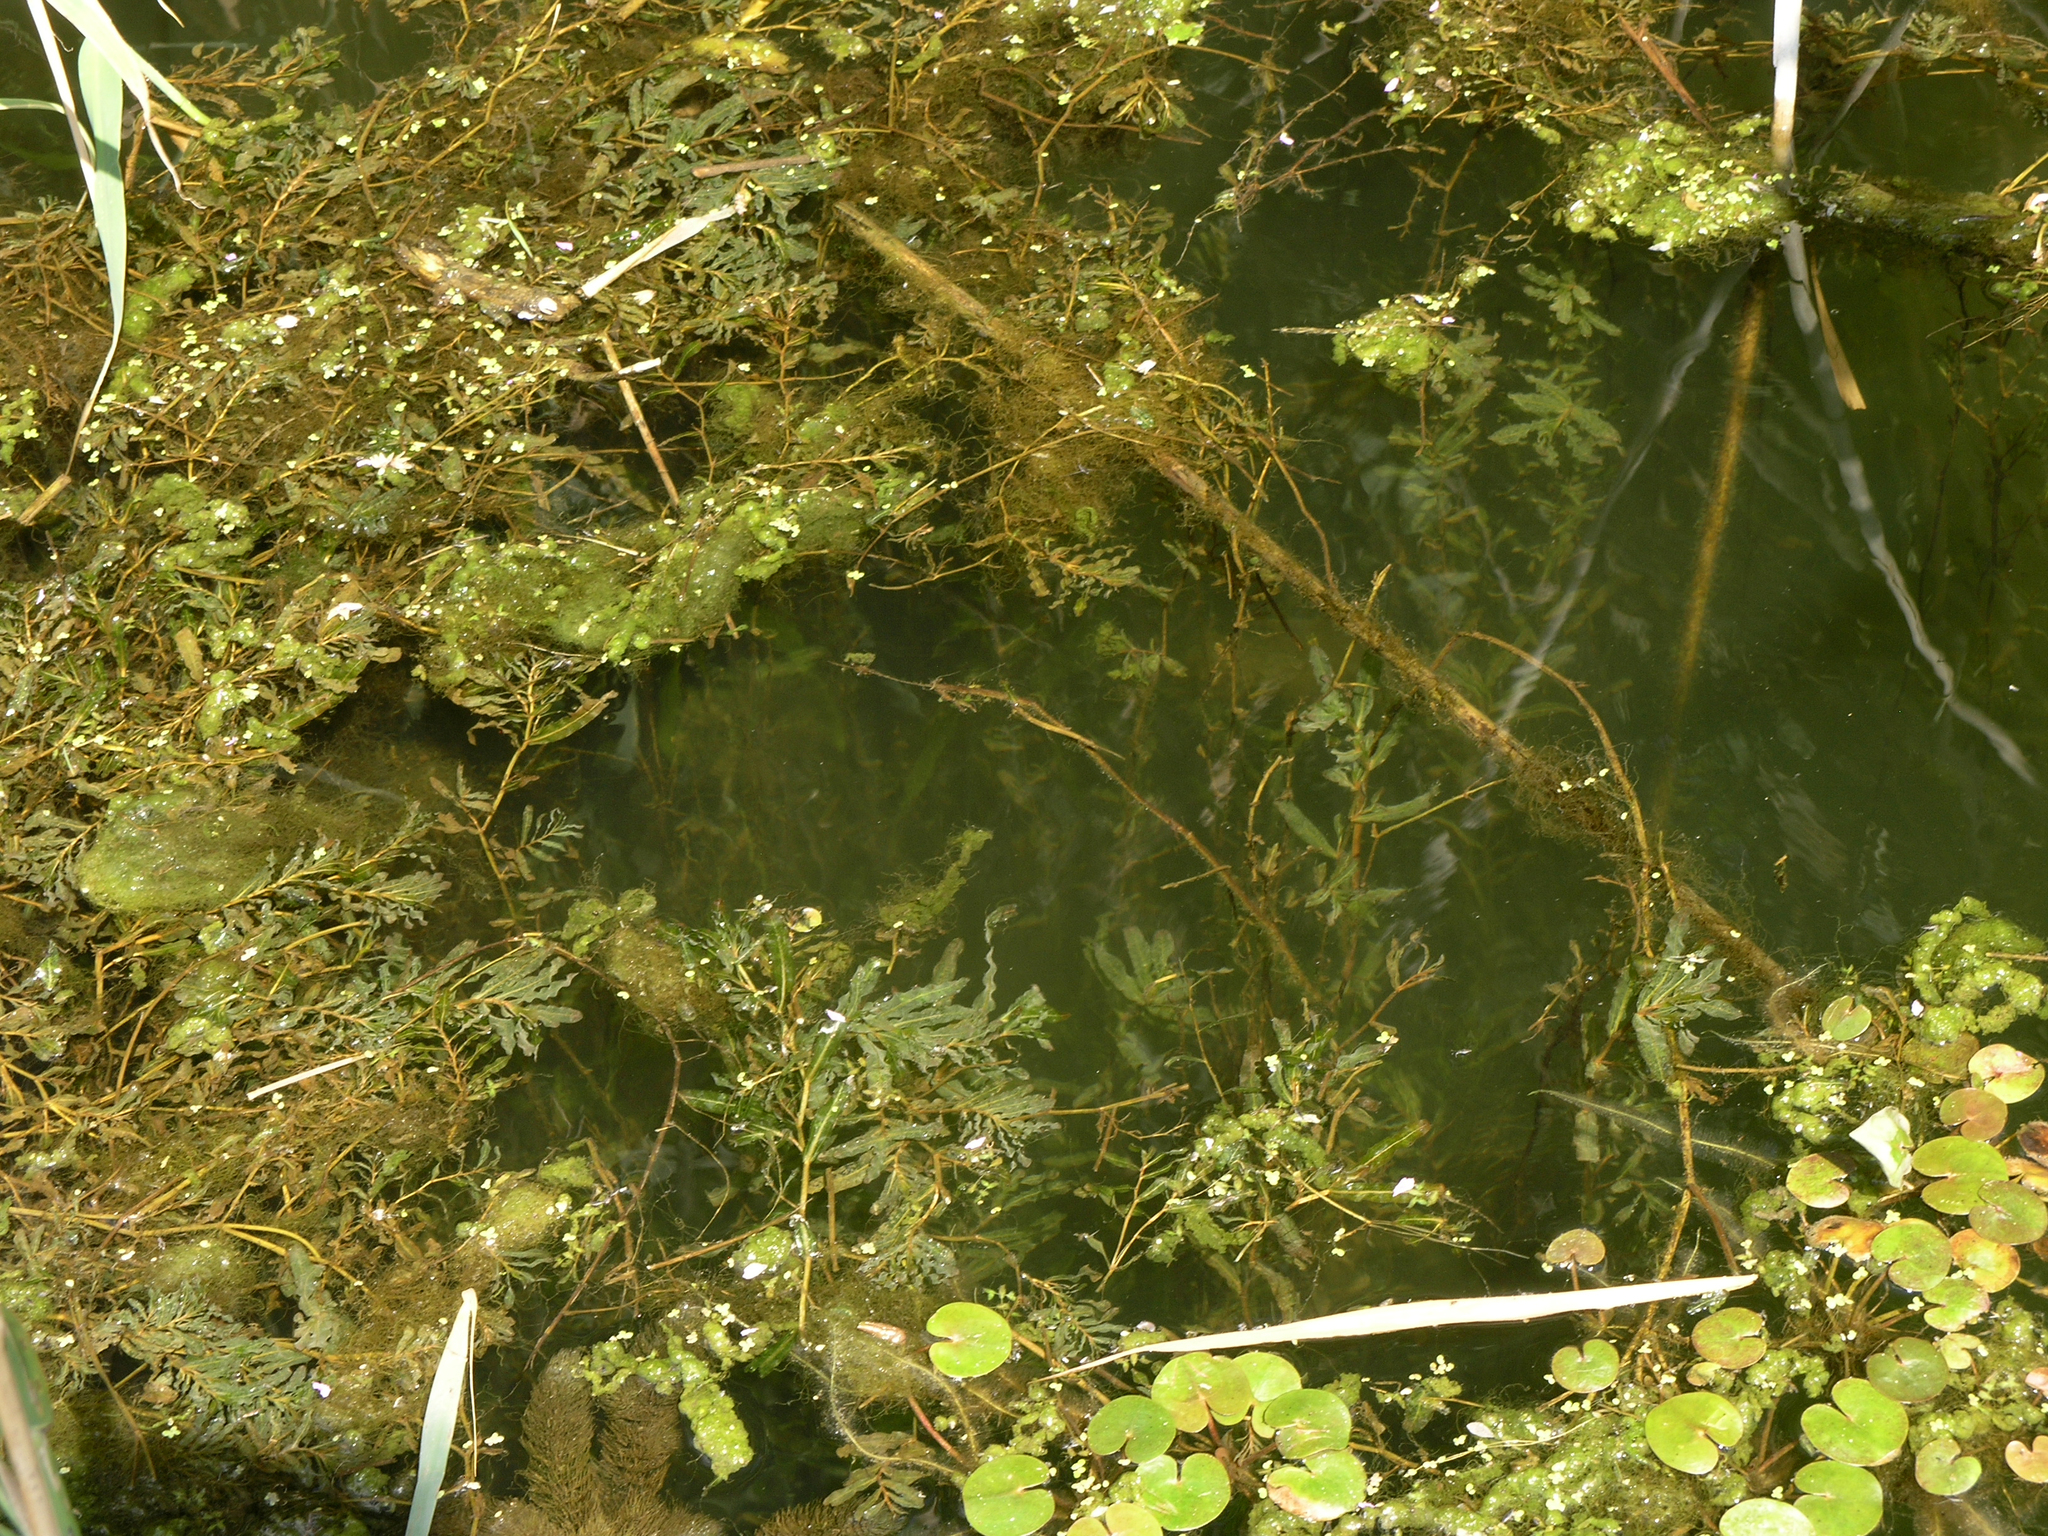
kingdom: Plantae
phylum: Tracheophyta
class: Liliopsida
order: Alismatales
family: Potamogetonaceae
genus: Potamogeton
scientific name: Potamogeton crispus
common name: Curled pondweed
